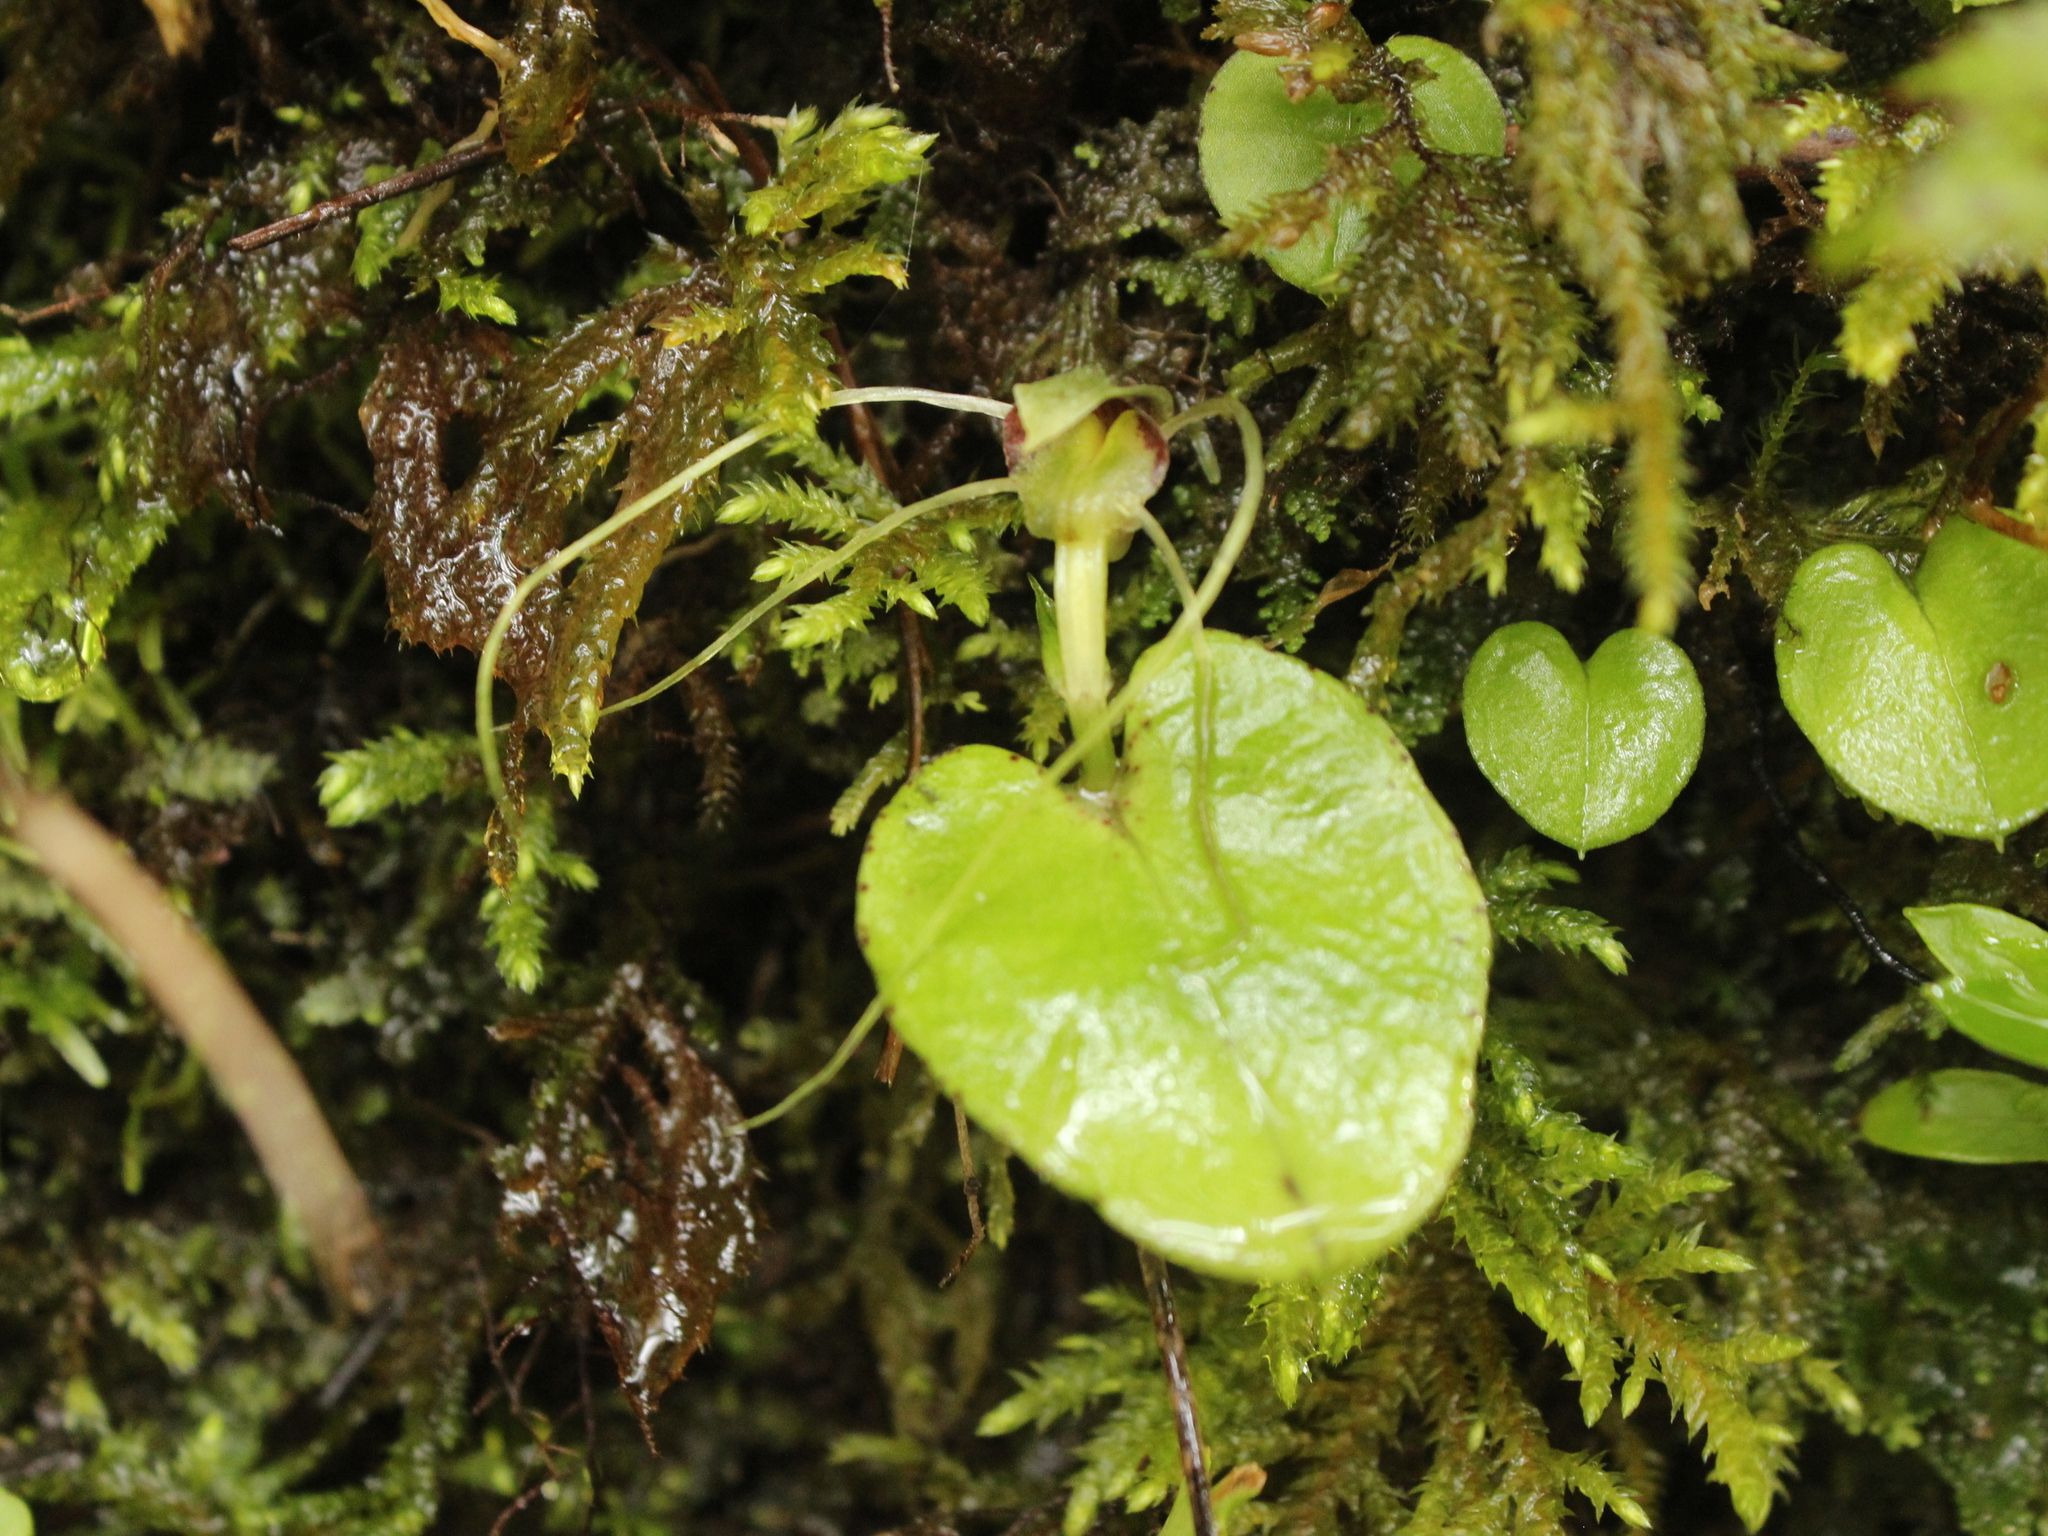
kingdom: Plantae
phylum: Tracheophyta
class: Liliopsida
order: Asparagales
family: Orchidaceae
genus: Corybas
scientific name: Corybas rivularis
